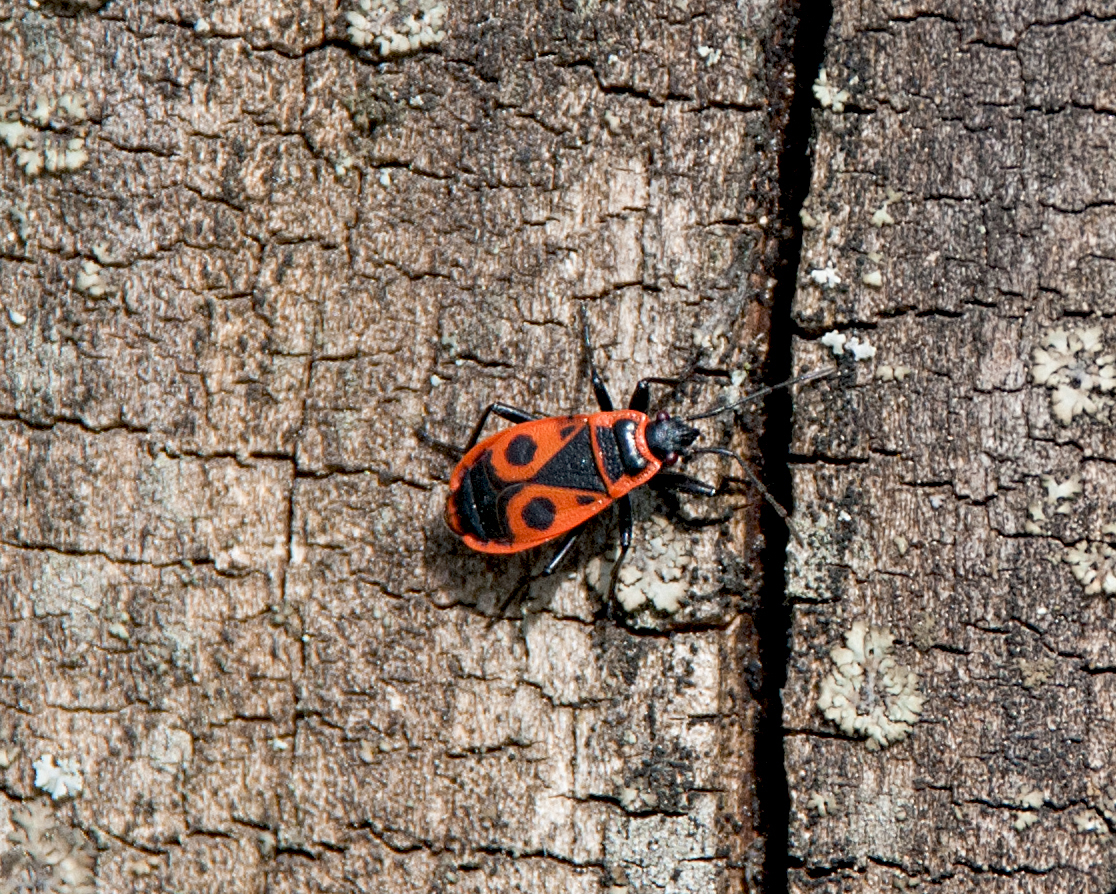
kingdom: Animalia
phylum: Arthropoda
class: Insecta
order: Hemiptera
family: Pyrrhocoridae
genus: Pyrrhocoris
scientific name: Pyrrhocoris apterus
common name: Firebug
